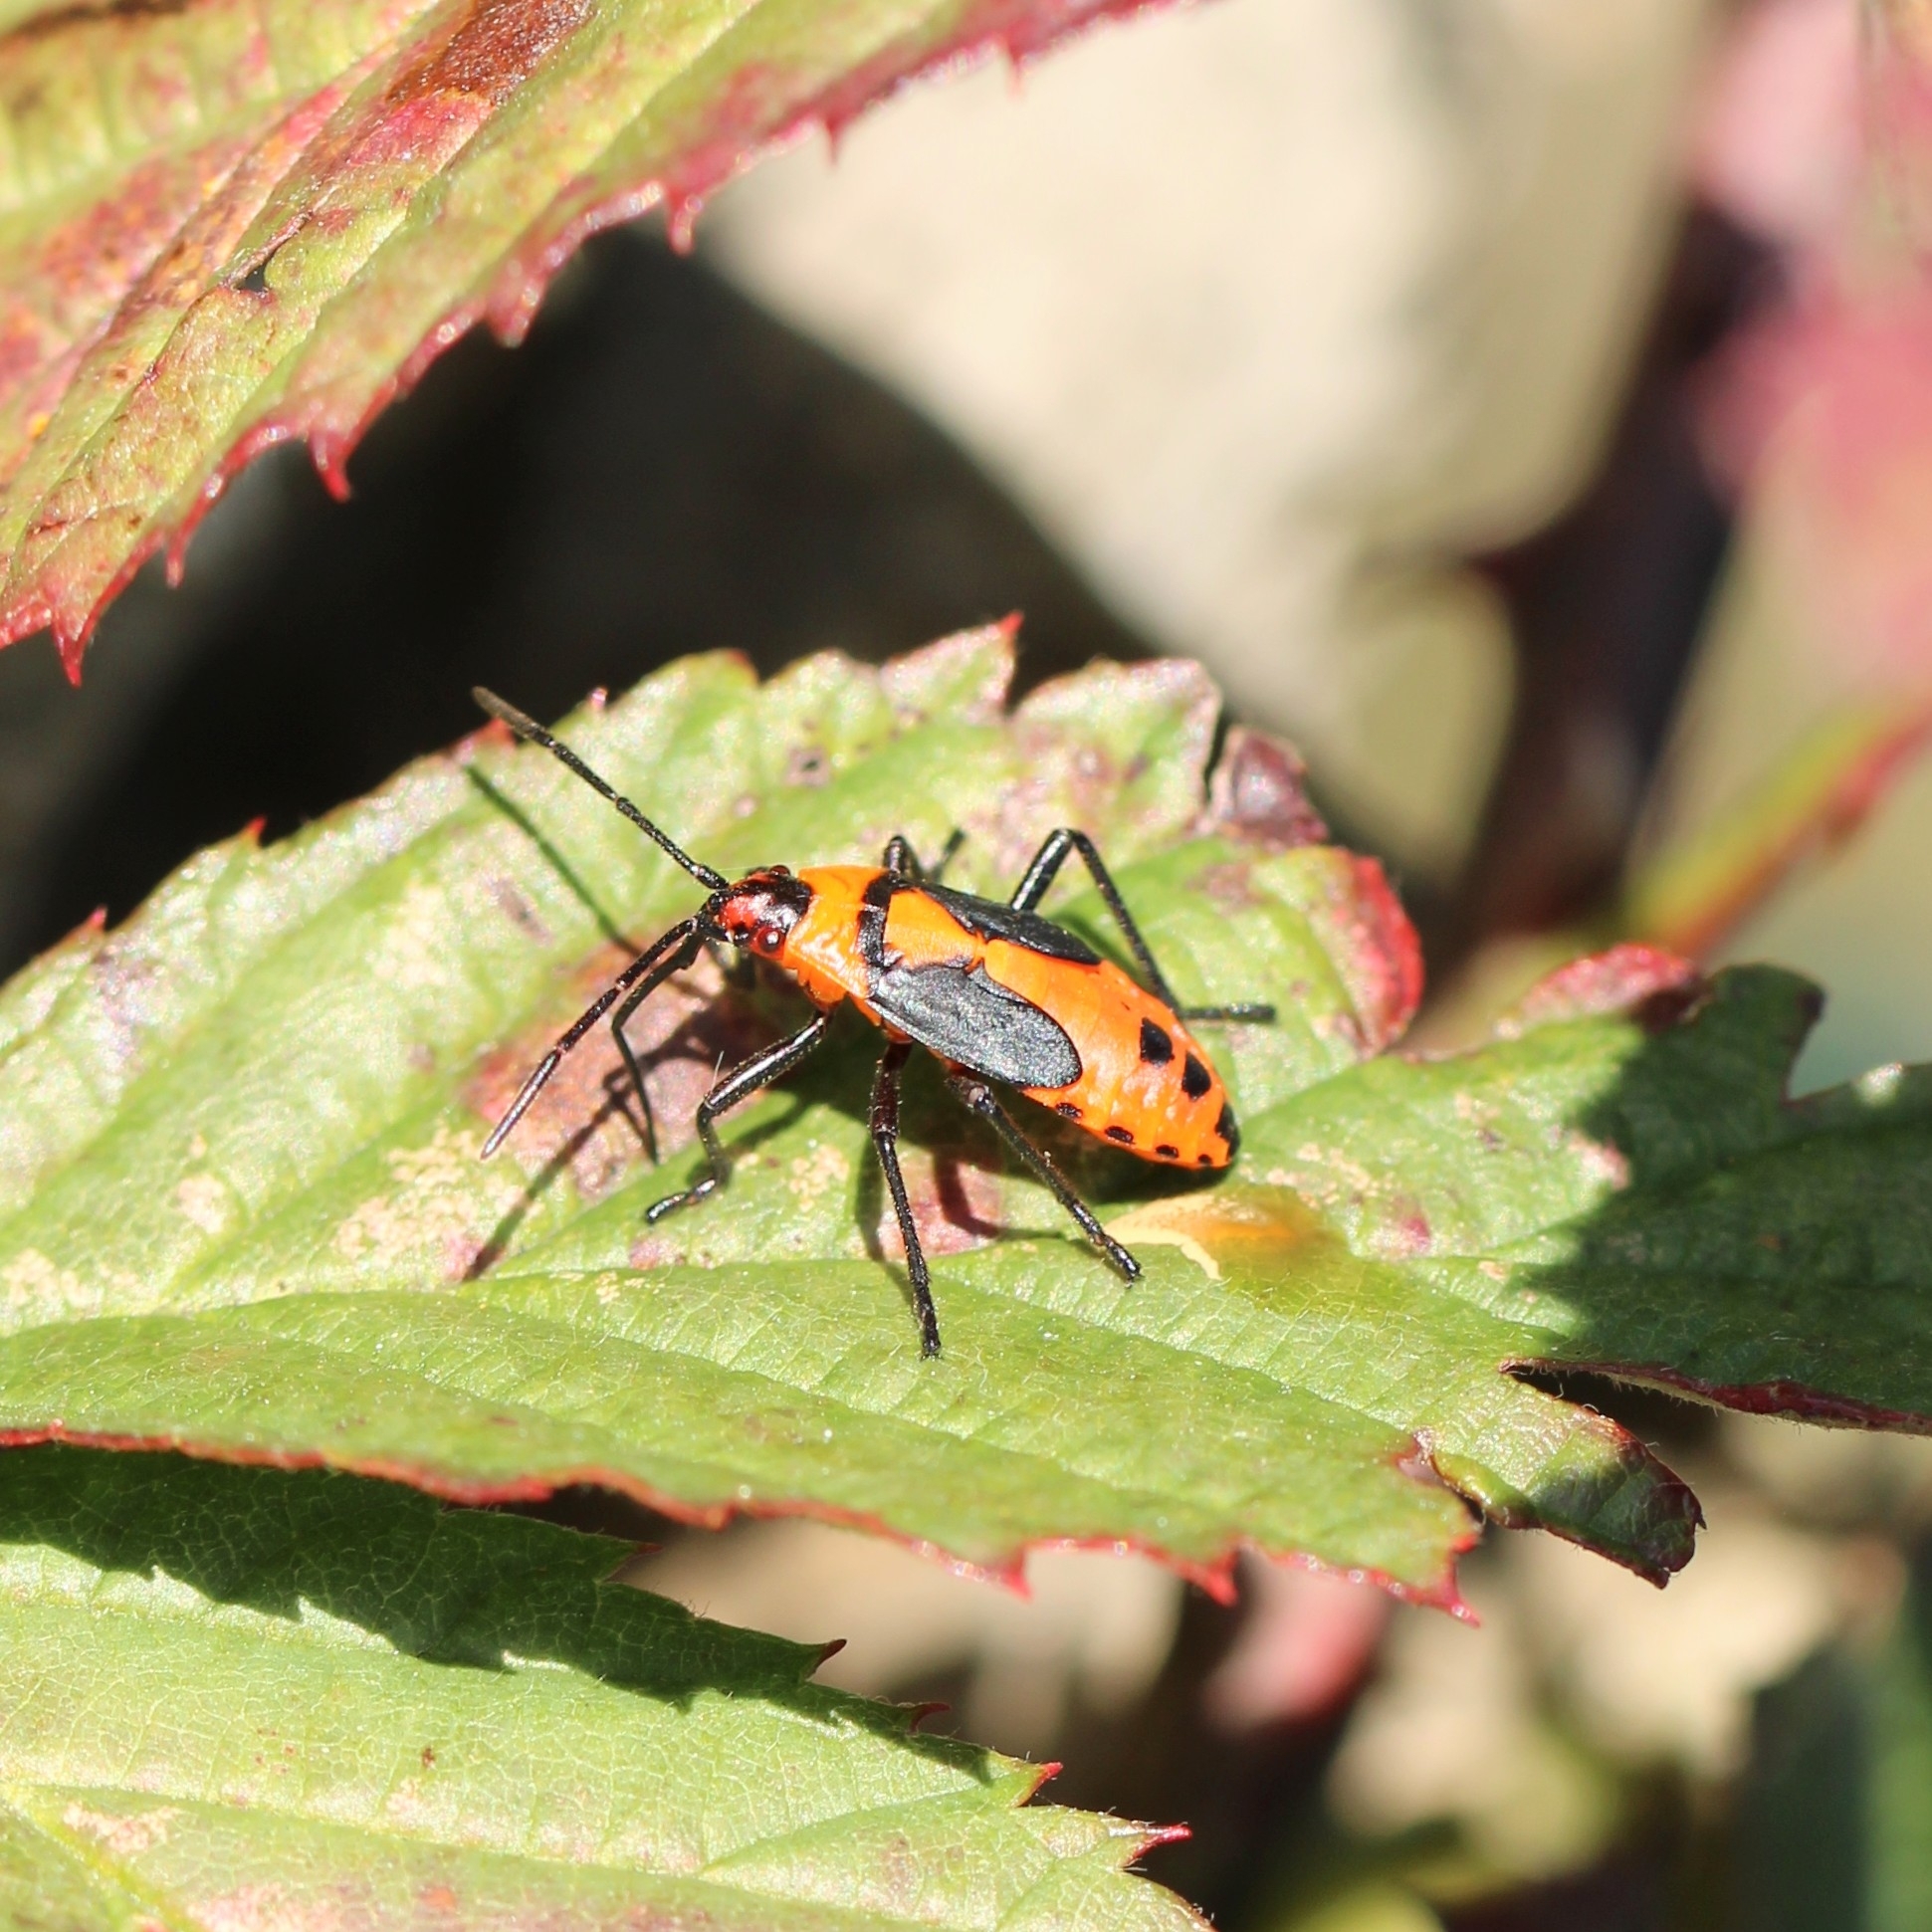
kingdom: Animalia
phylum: Arthropoda
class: Insecta
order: Hemiptera
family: Lygaeidae
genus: Oncopeltus
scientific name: Oncopeltus fasciatus
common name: Large milkweed bug
